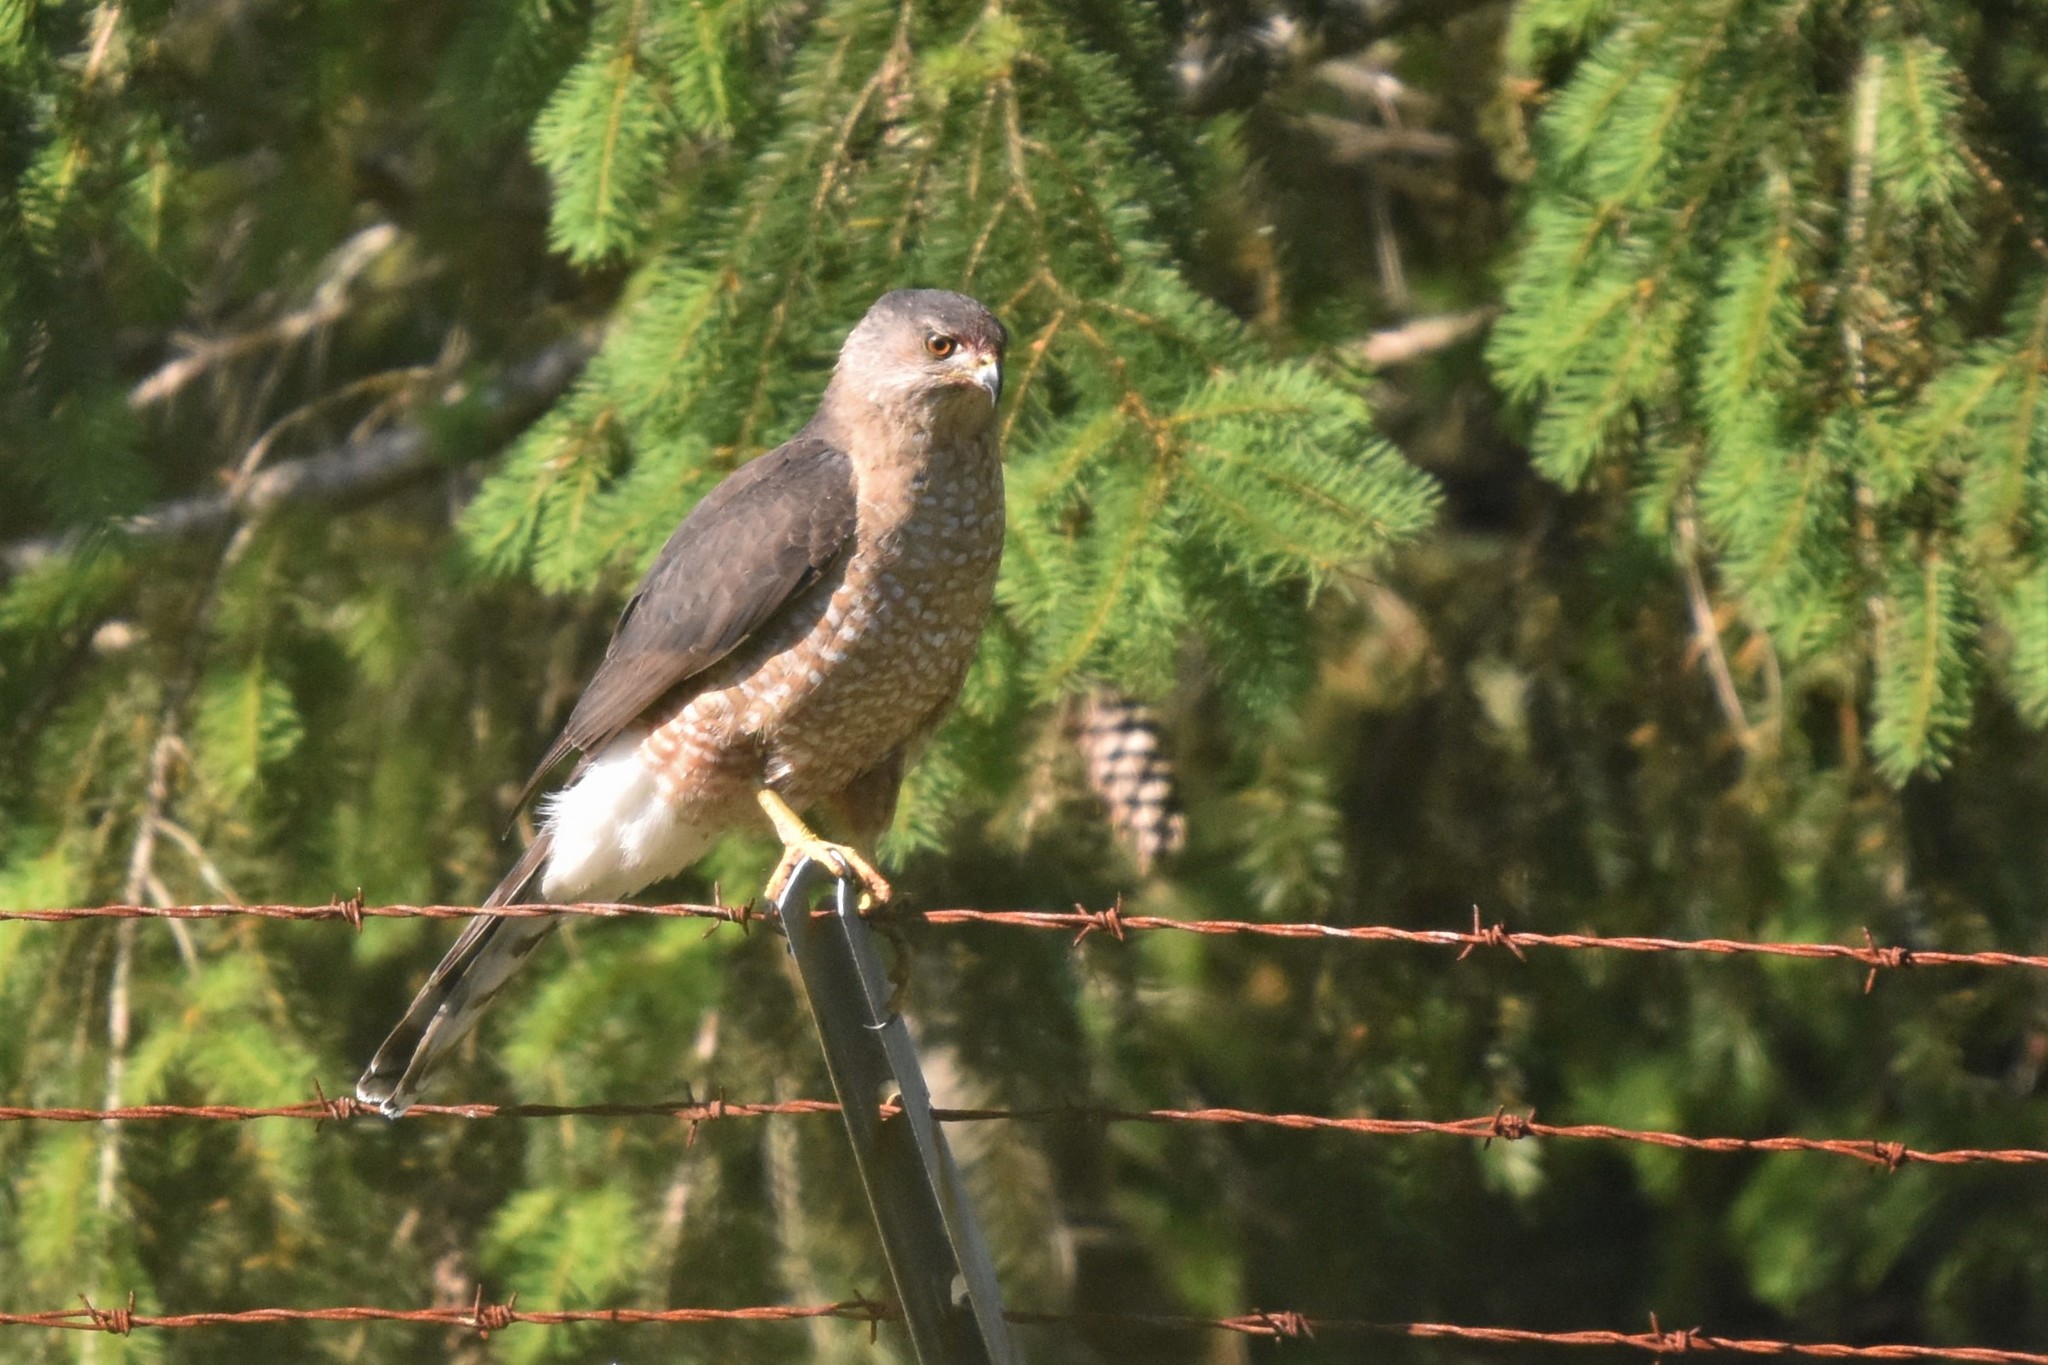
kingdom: Animalia
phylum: Chordata
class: Aves
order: Accipitriformes
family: Accipitridae
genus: Accipiter
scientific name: Accipiter cooperii
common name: Cooper's hawk
